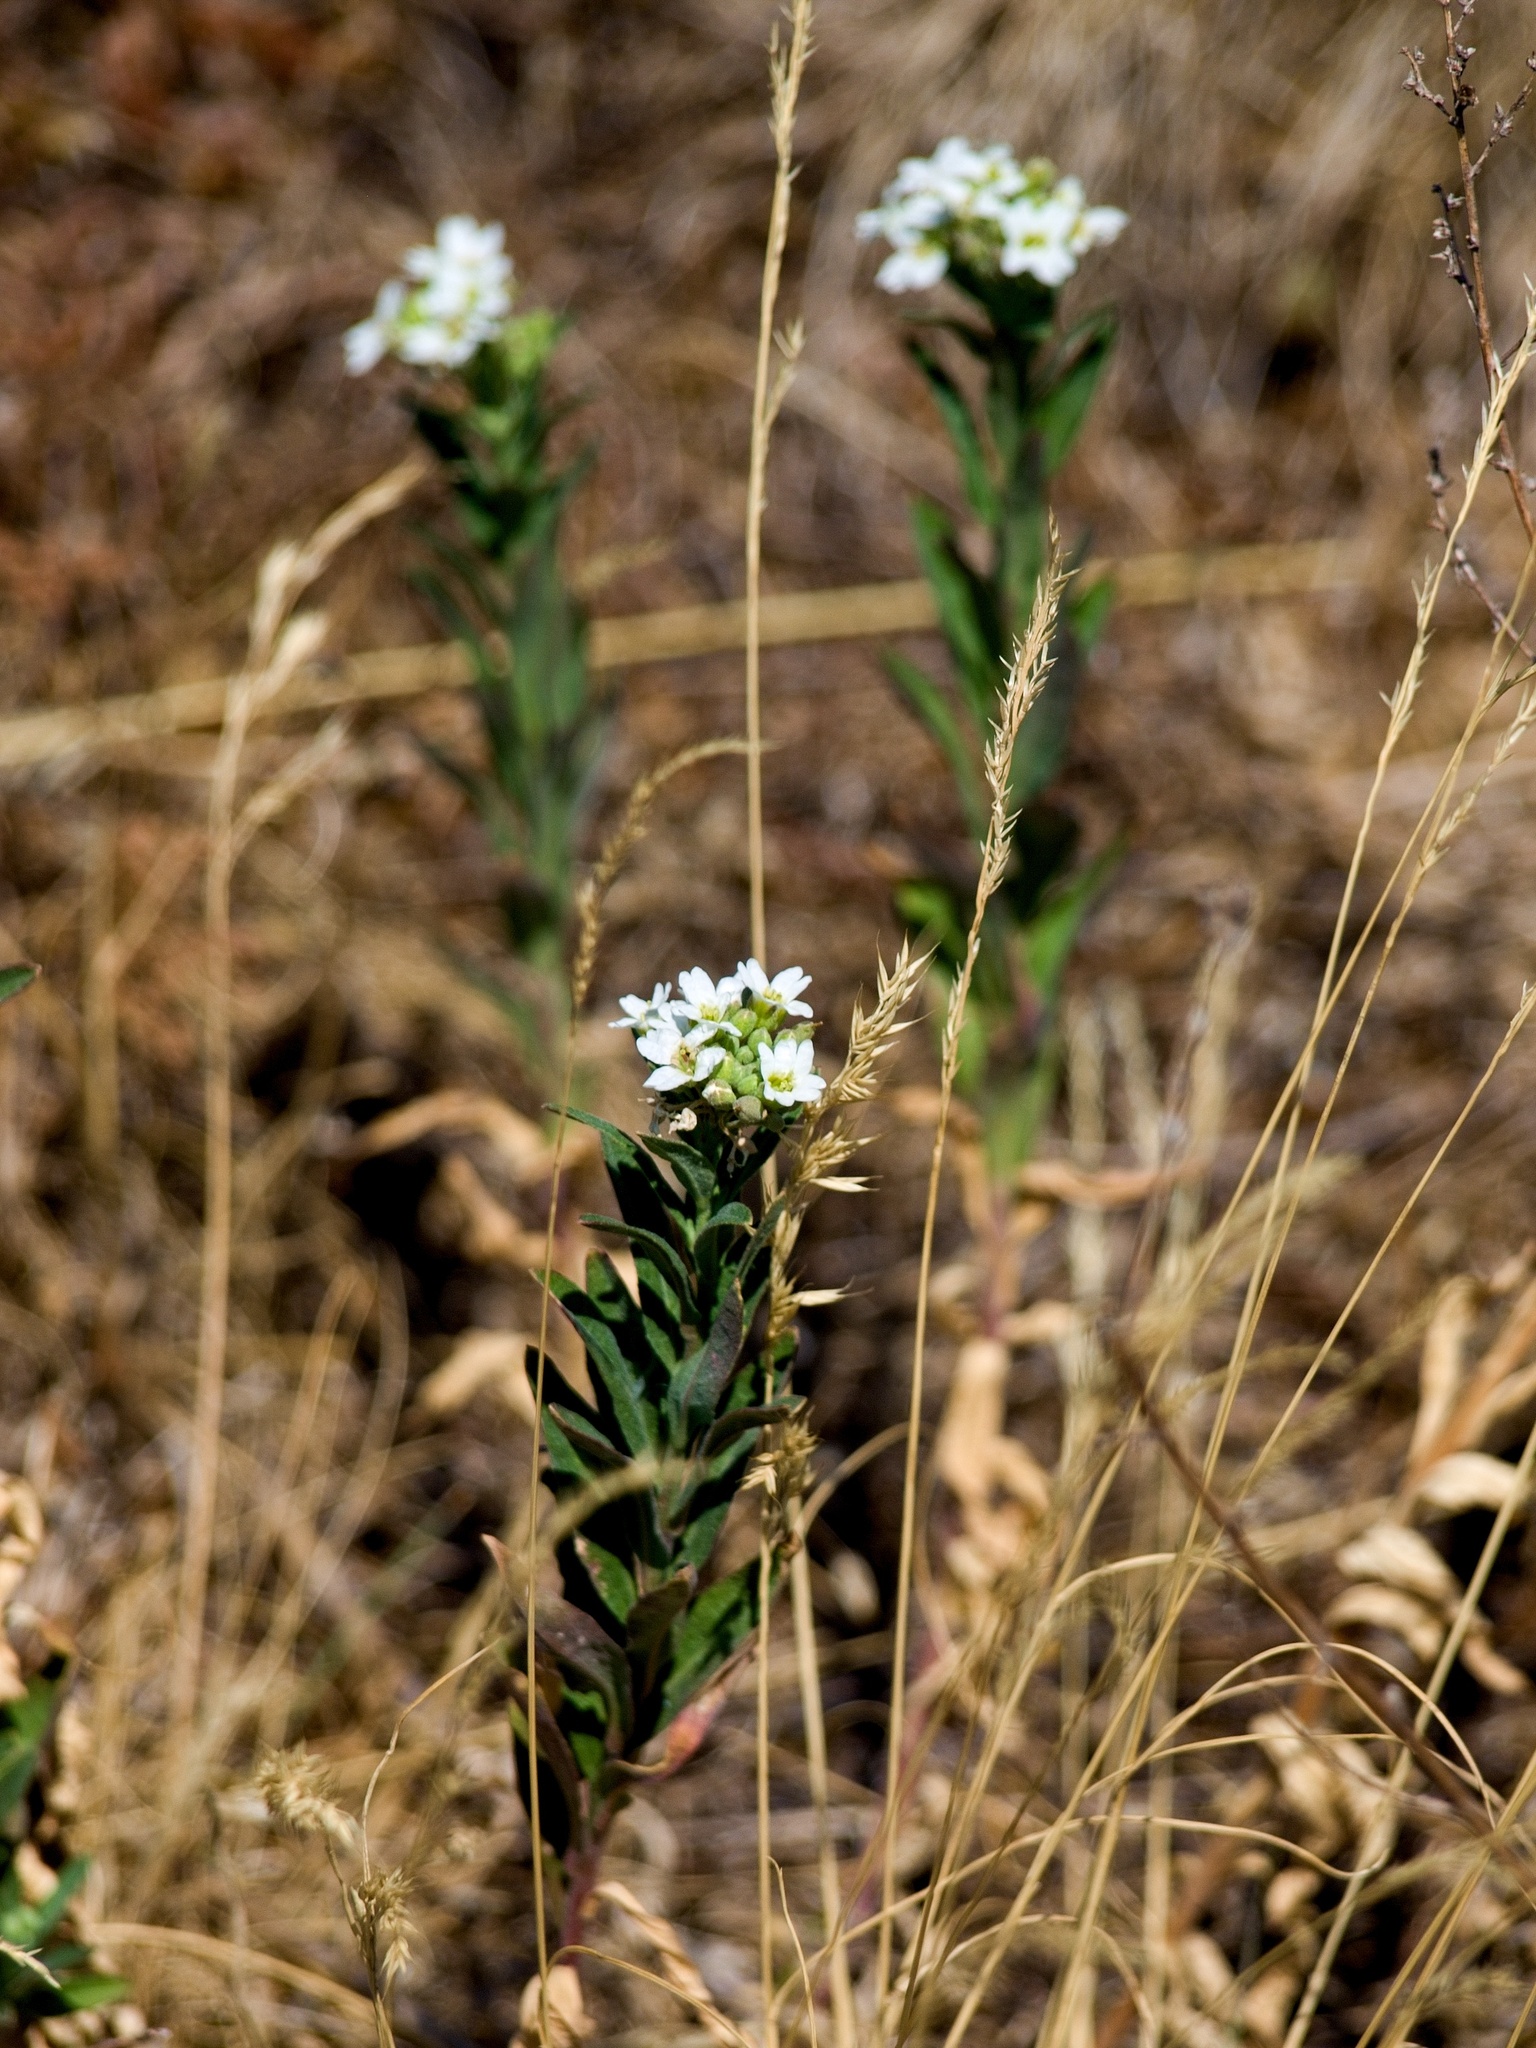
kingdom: Plantae
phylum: Tracheophyta
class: Magnoliopsida
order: Brassicales
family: Brassicaceae
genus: Berteroa
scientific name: Berteroa incana
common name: Hoary alison
